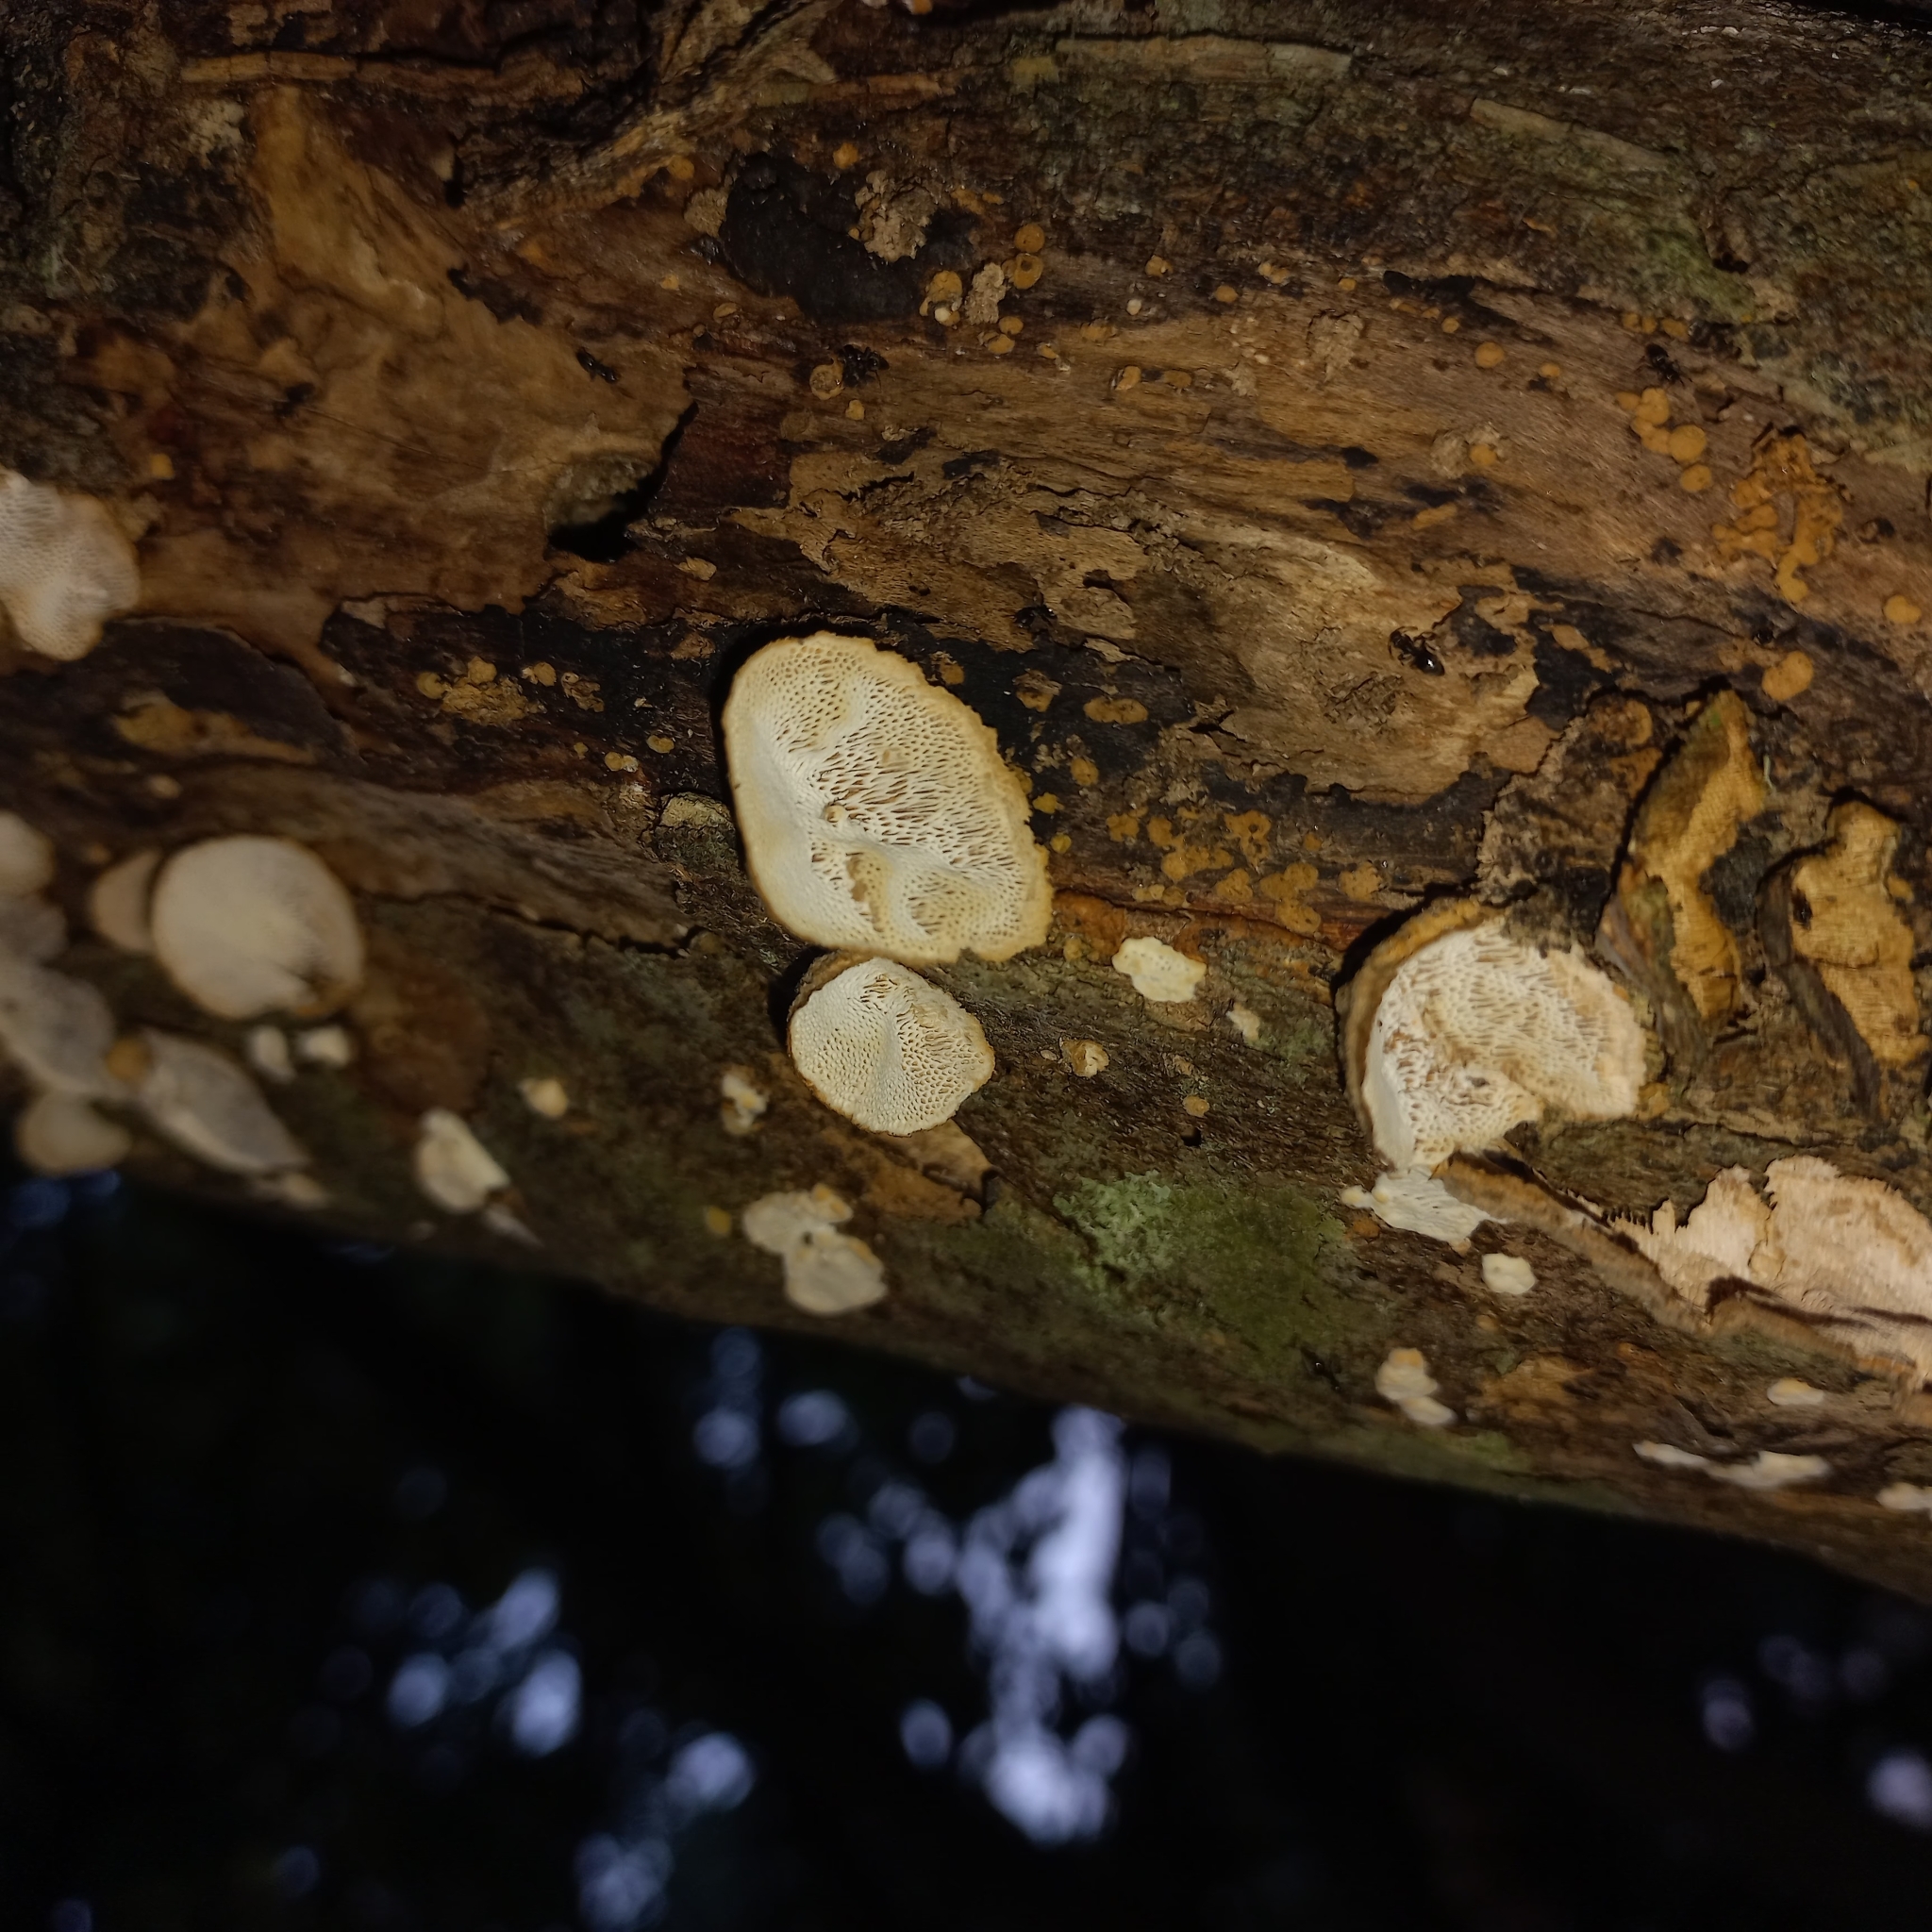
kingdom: Fungi
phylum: Basidiomycota
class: Agaricomycetes
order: Polyporales
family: Polyporaceae
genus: Poronidulus
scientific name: Poronidulus conchifer
